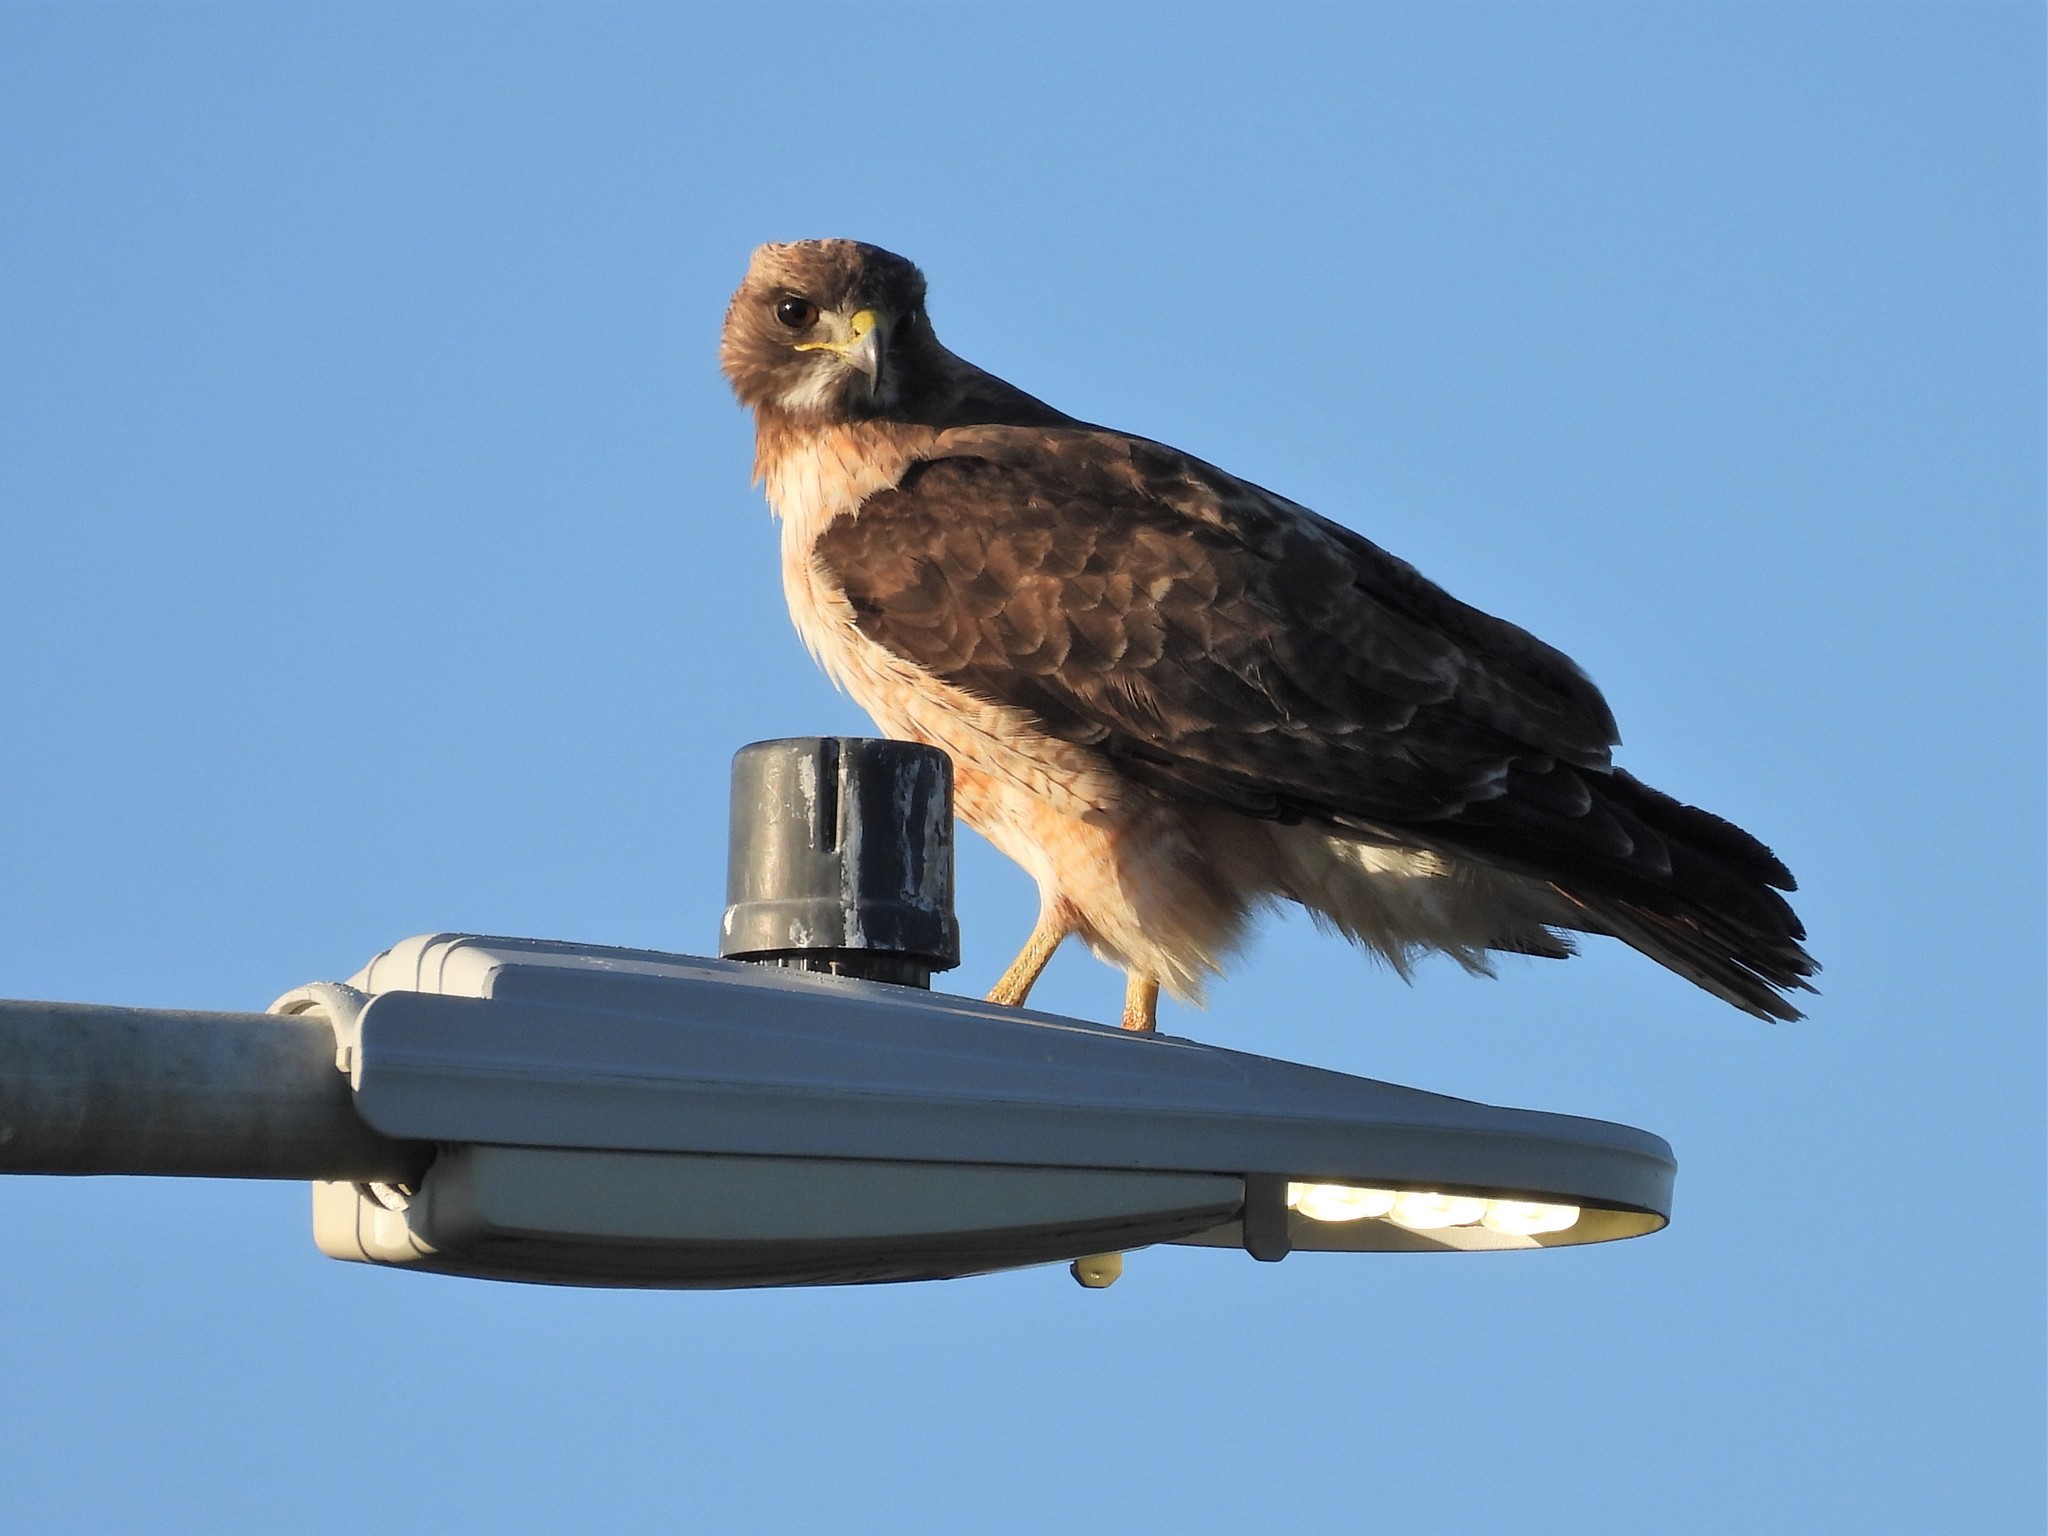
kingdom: Animalia
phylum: Chordata
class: Aves
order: Accipitriformes
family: Accipitridae
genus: Buteo
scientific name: Buteo jamaicensis
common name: Red-tailed hawk
